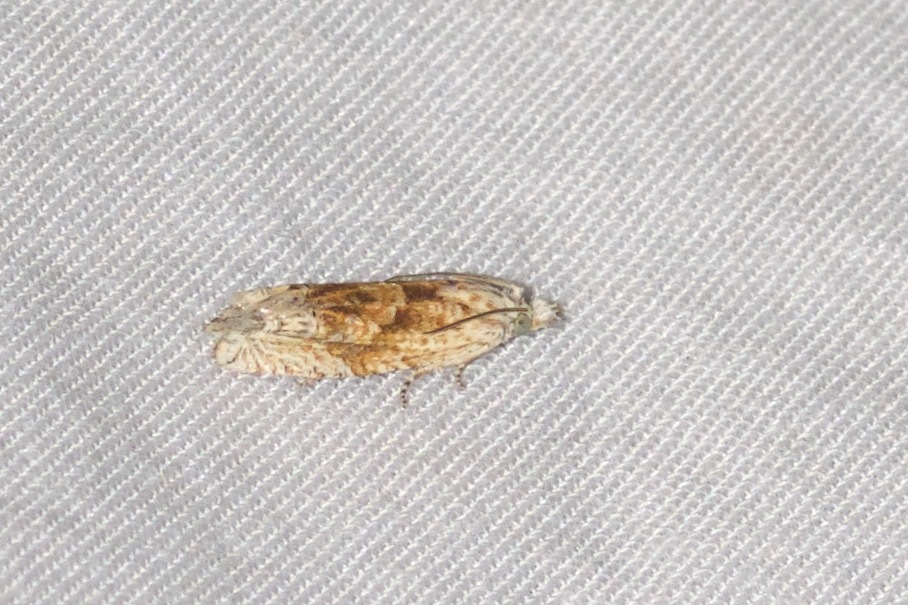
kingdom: Animalia
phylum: Arthropoda
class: Insecta
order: Lepidoptera
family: Tortricidae
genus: Eucosma
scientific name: Eucosma ochrocephala
